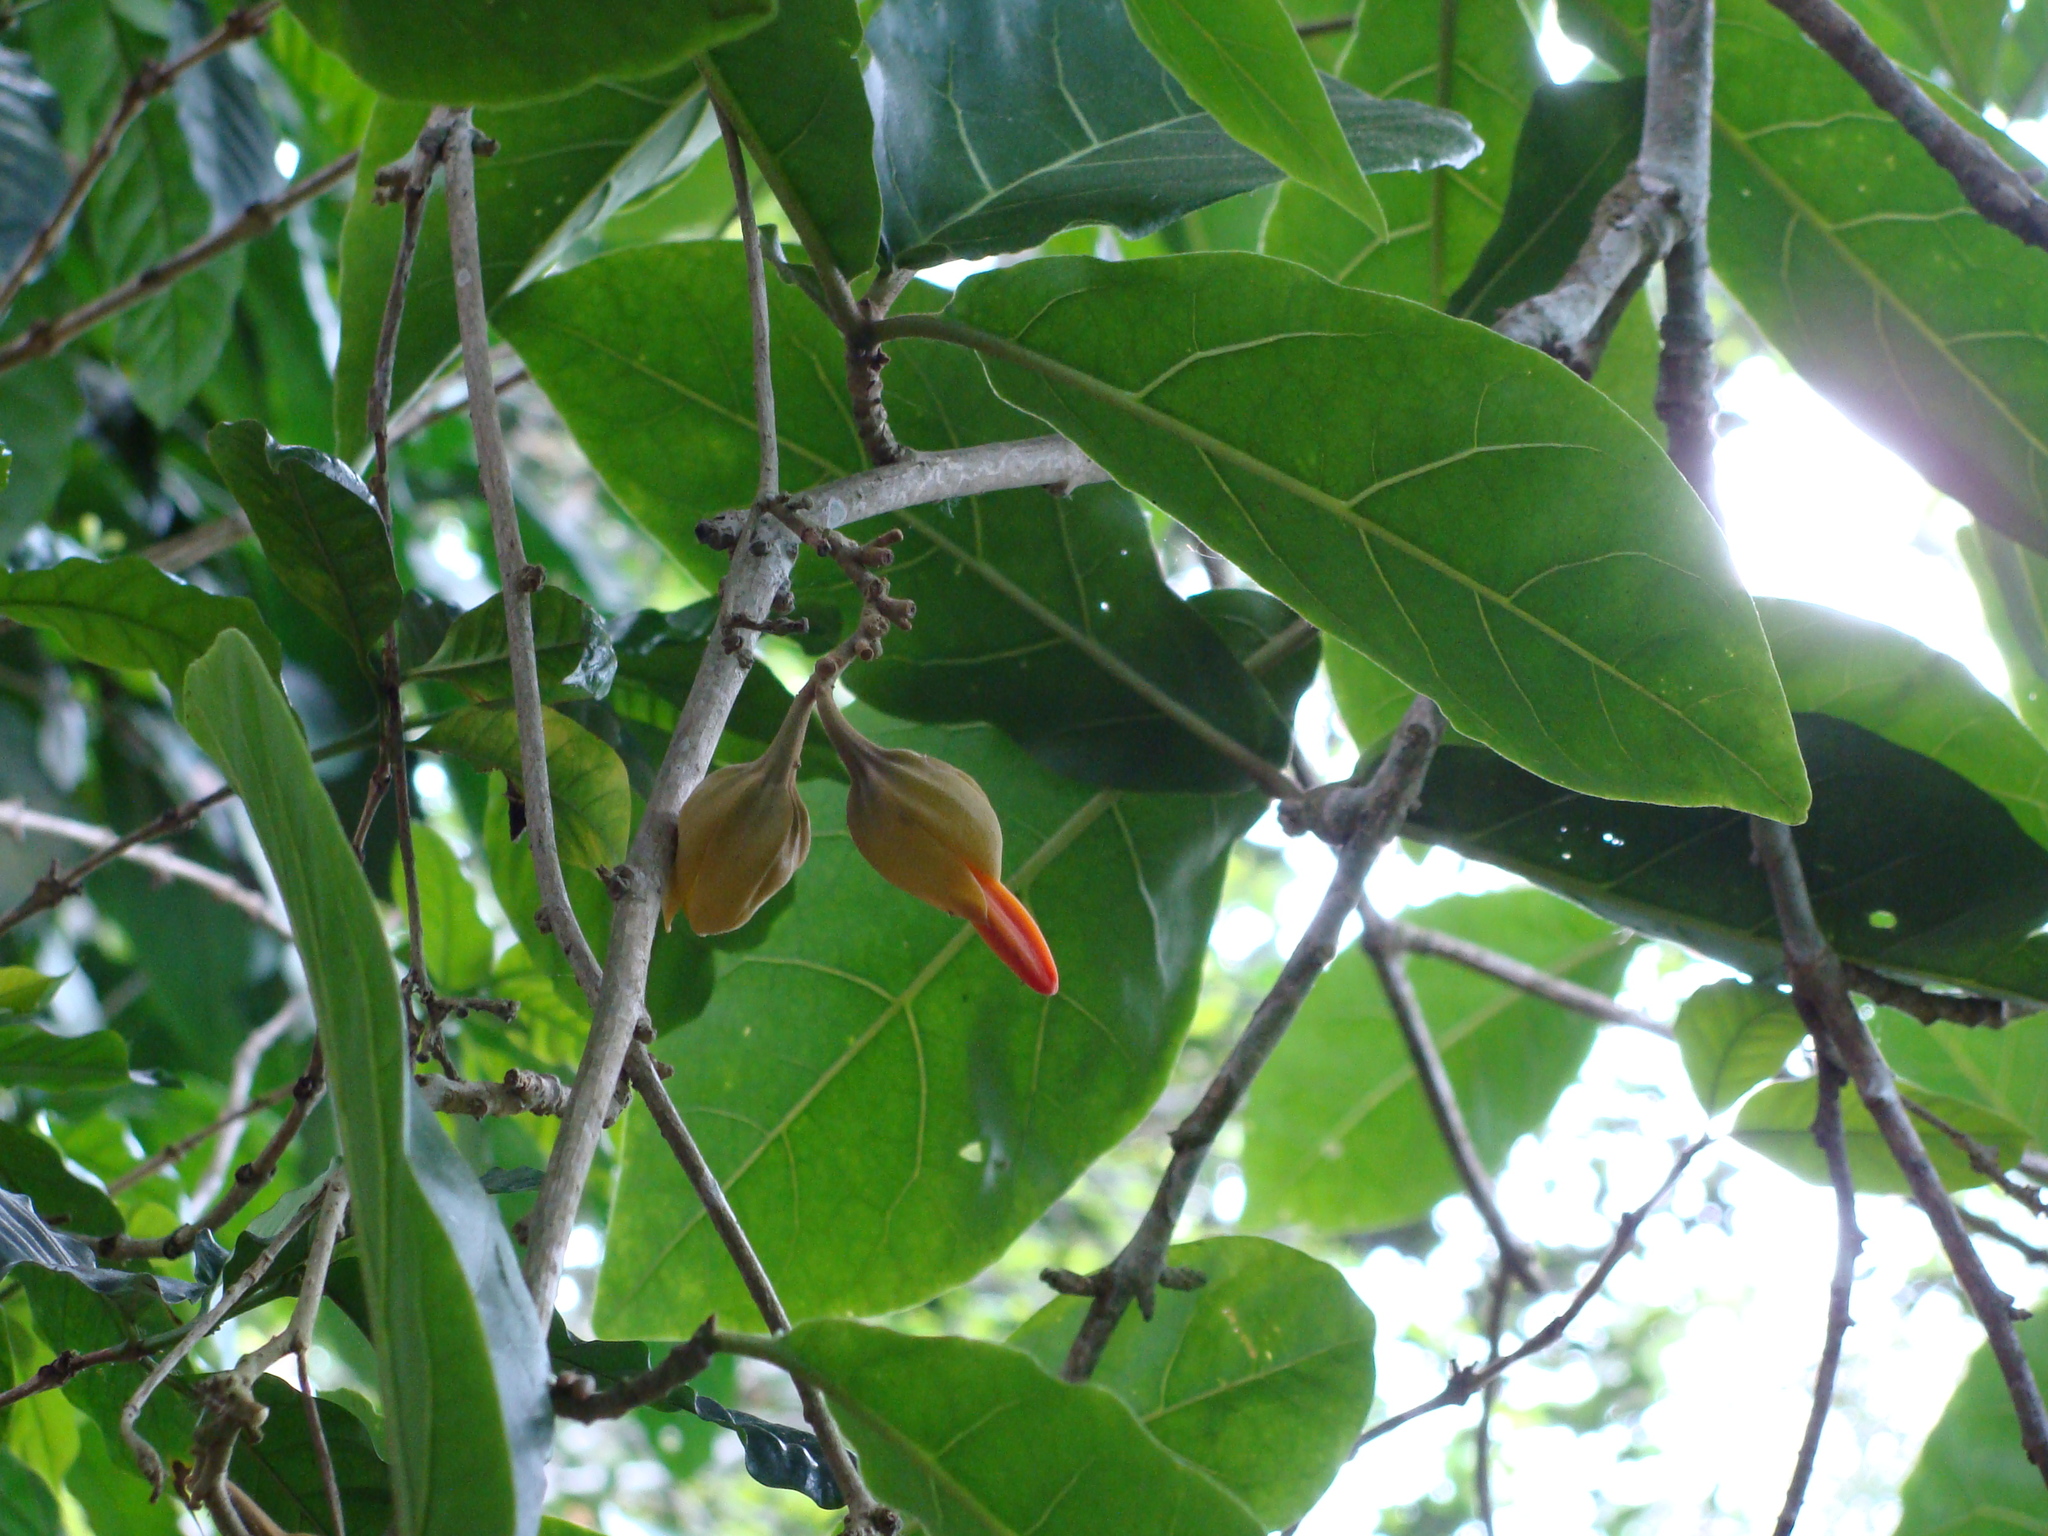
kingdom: Plantae
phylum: Tracheophyta
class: Magnoliopsida
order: Solanales
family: Solanaceae
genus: Juanulloa
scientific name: Juanulloa mexicana
